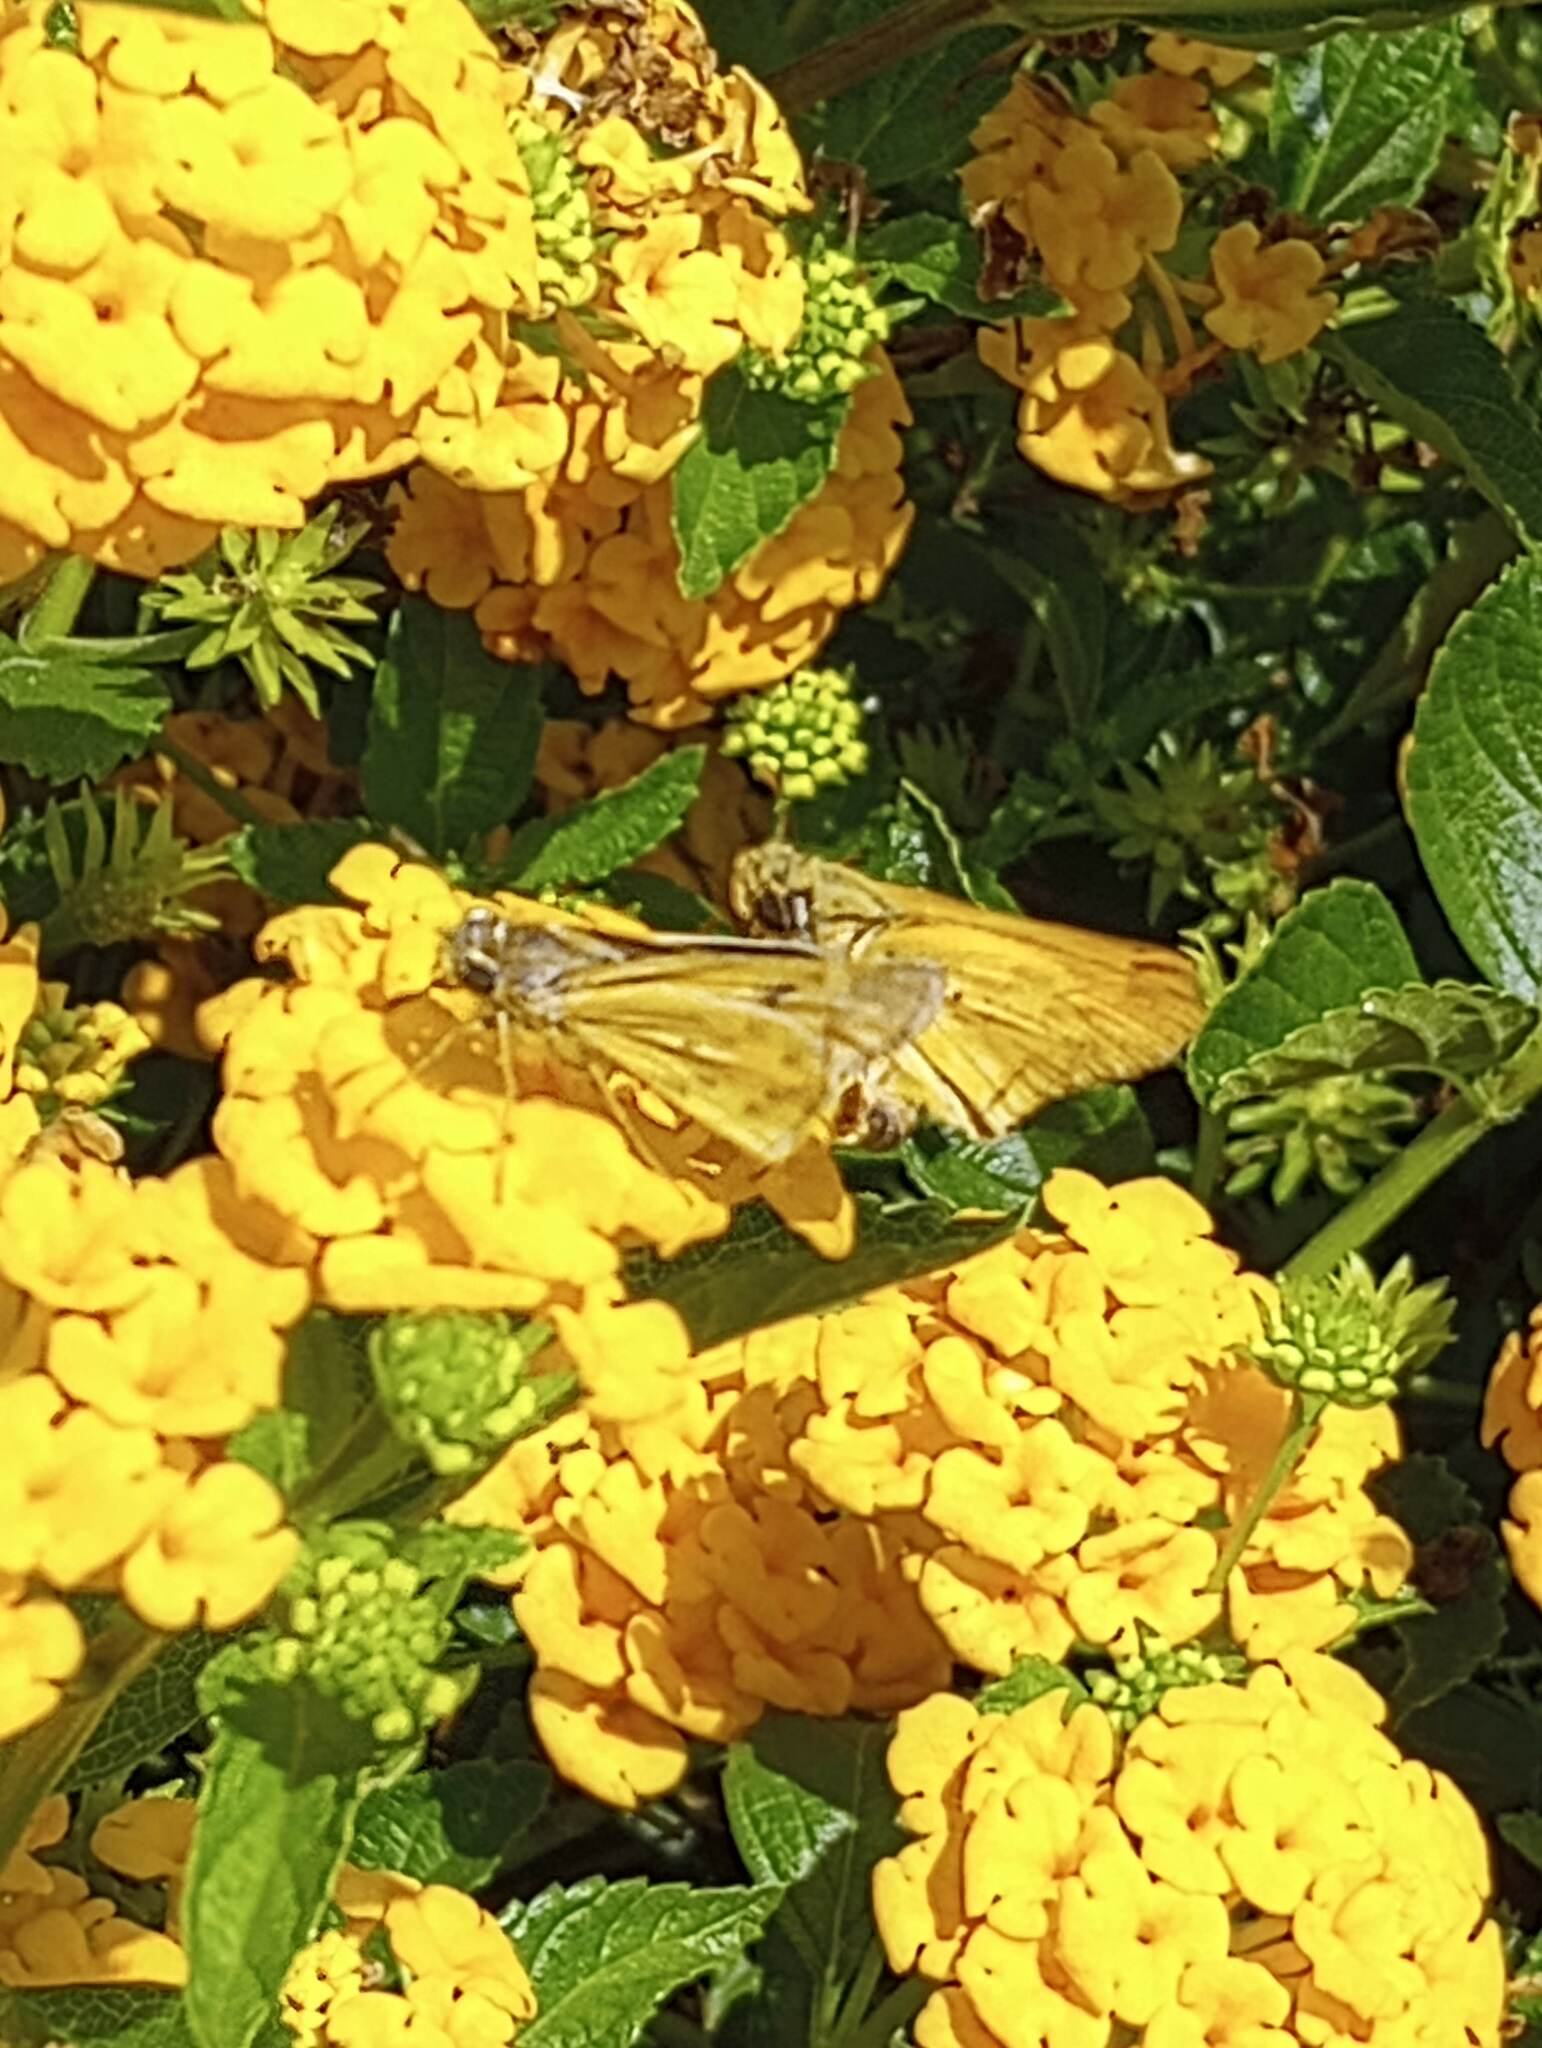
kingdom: Animalia
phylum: Arthropoda
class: Insecta
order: Lepidoptera
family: Hesperiidae
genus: Hylephila
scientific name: Hylephila phyleus
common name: Fiery skipper
